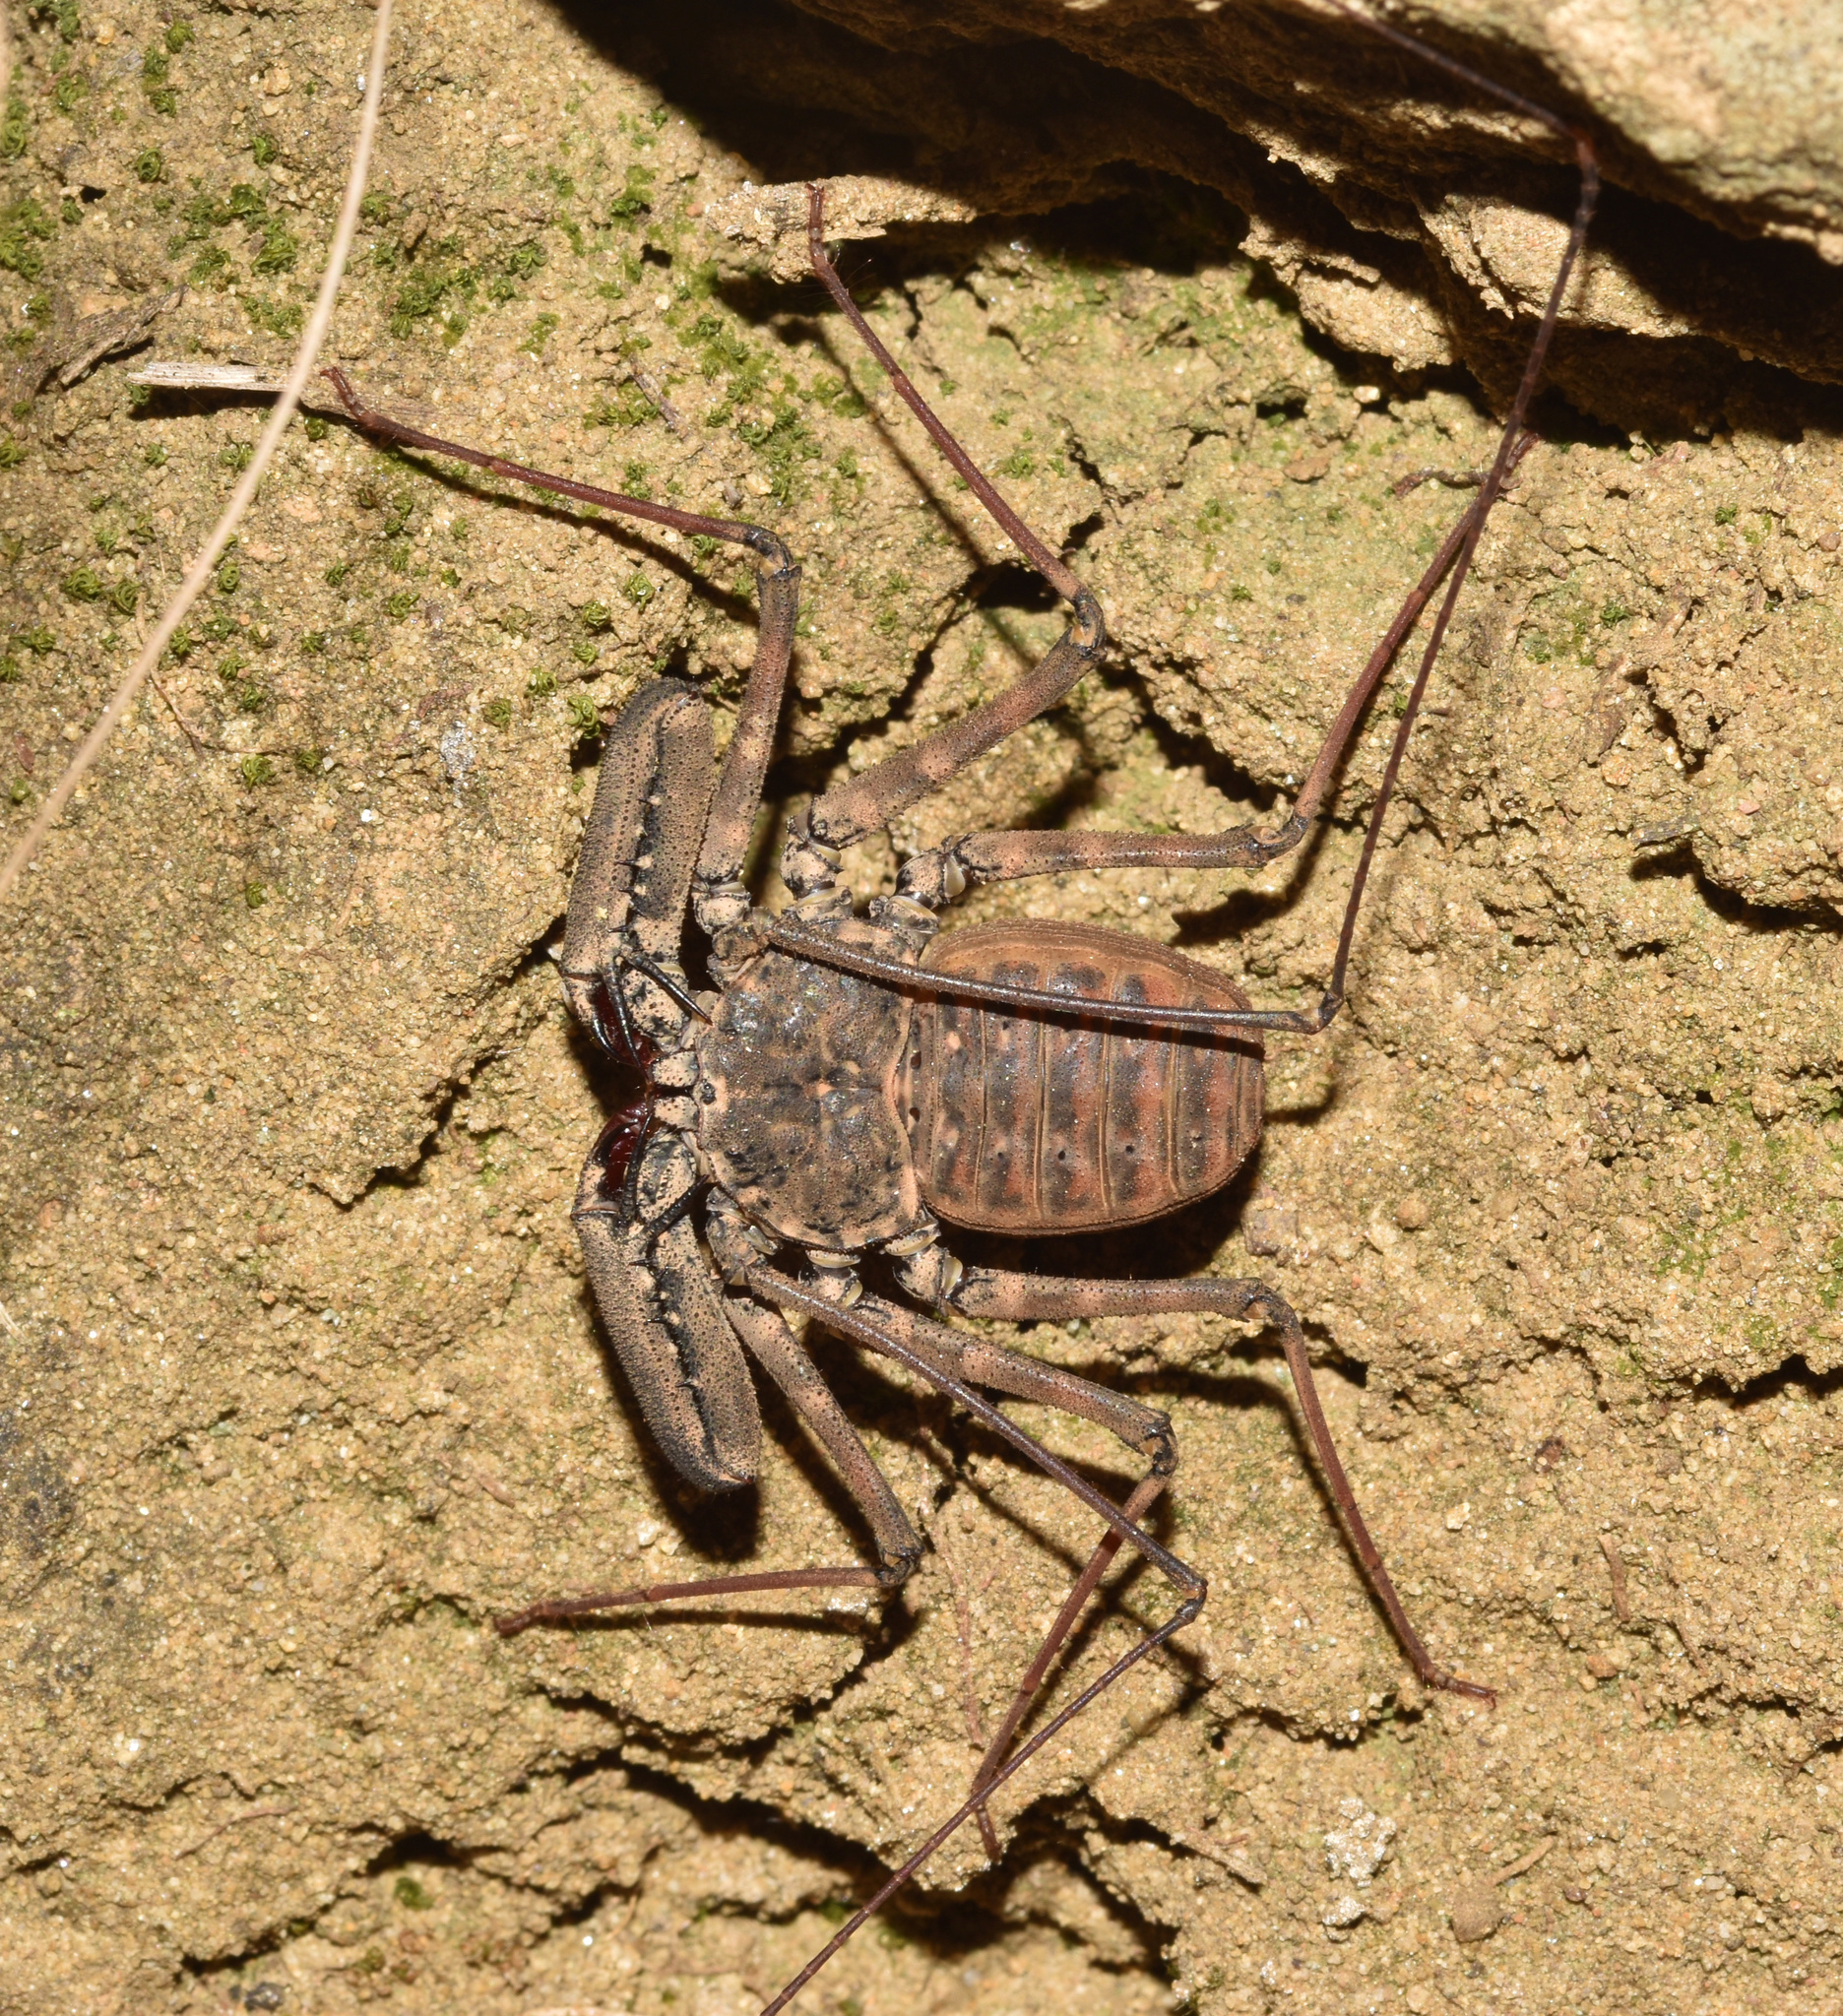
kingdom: Animalia
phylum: Arthropoda
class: Arachnida
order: Amblypygi
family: Phrynichidae
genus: Damon
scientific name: Damon annulatipes
